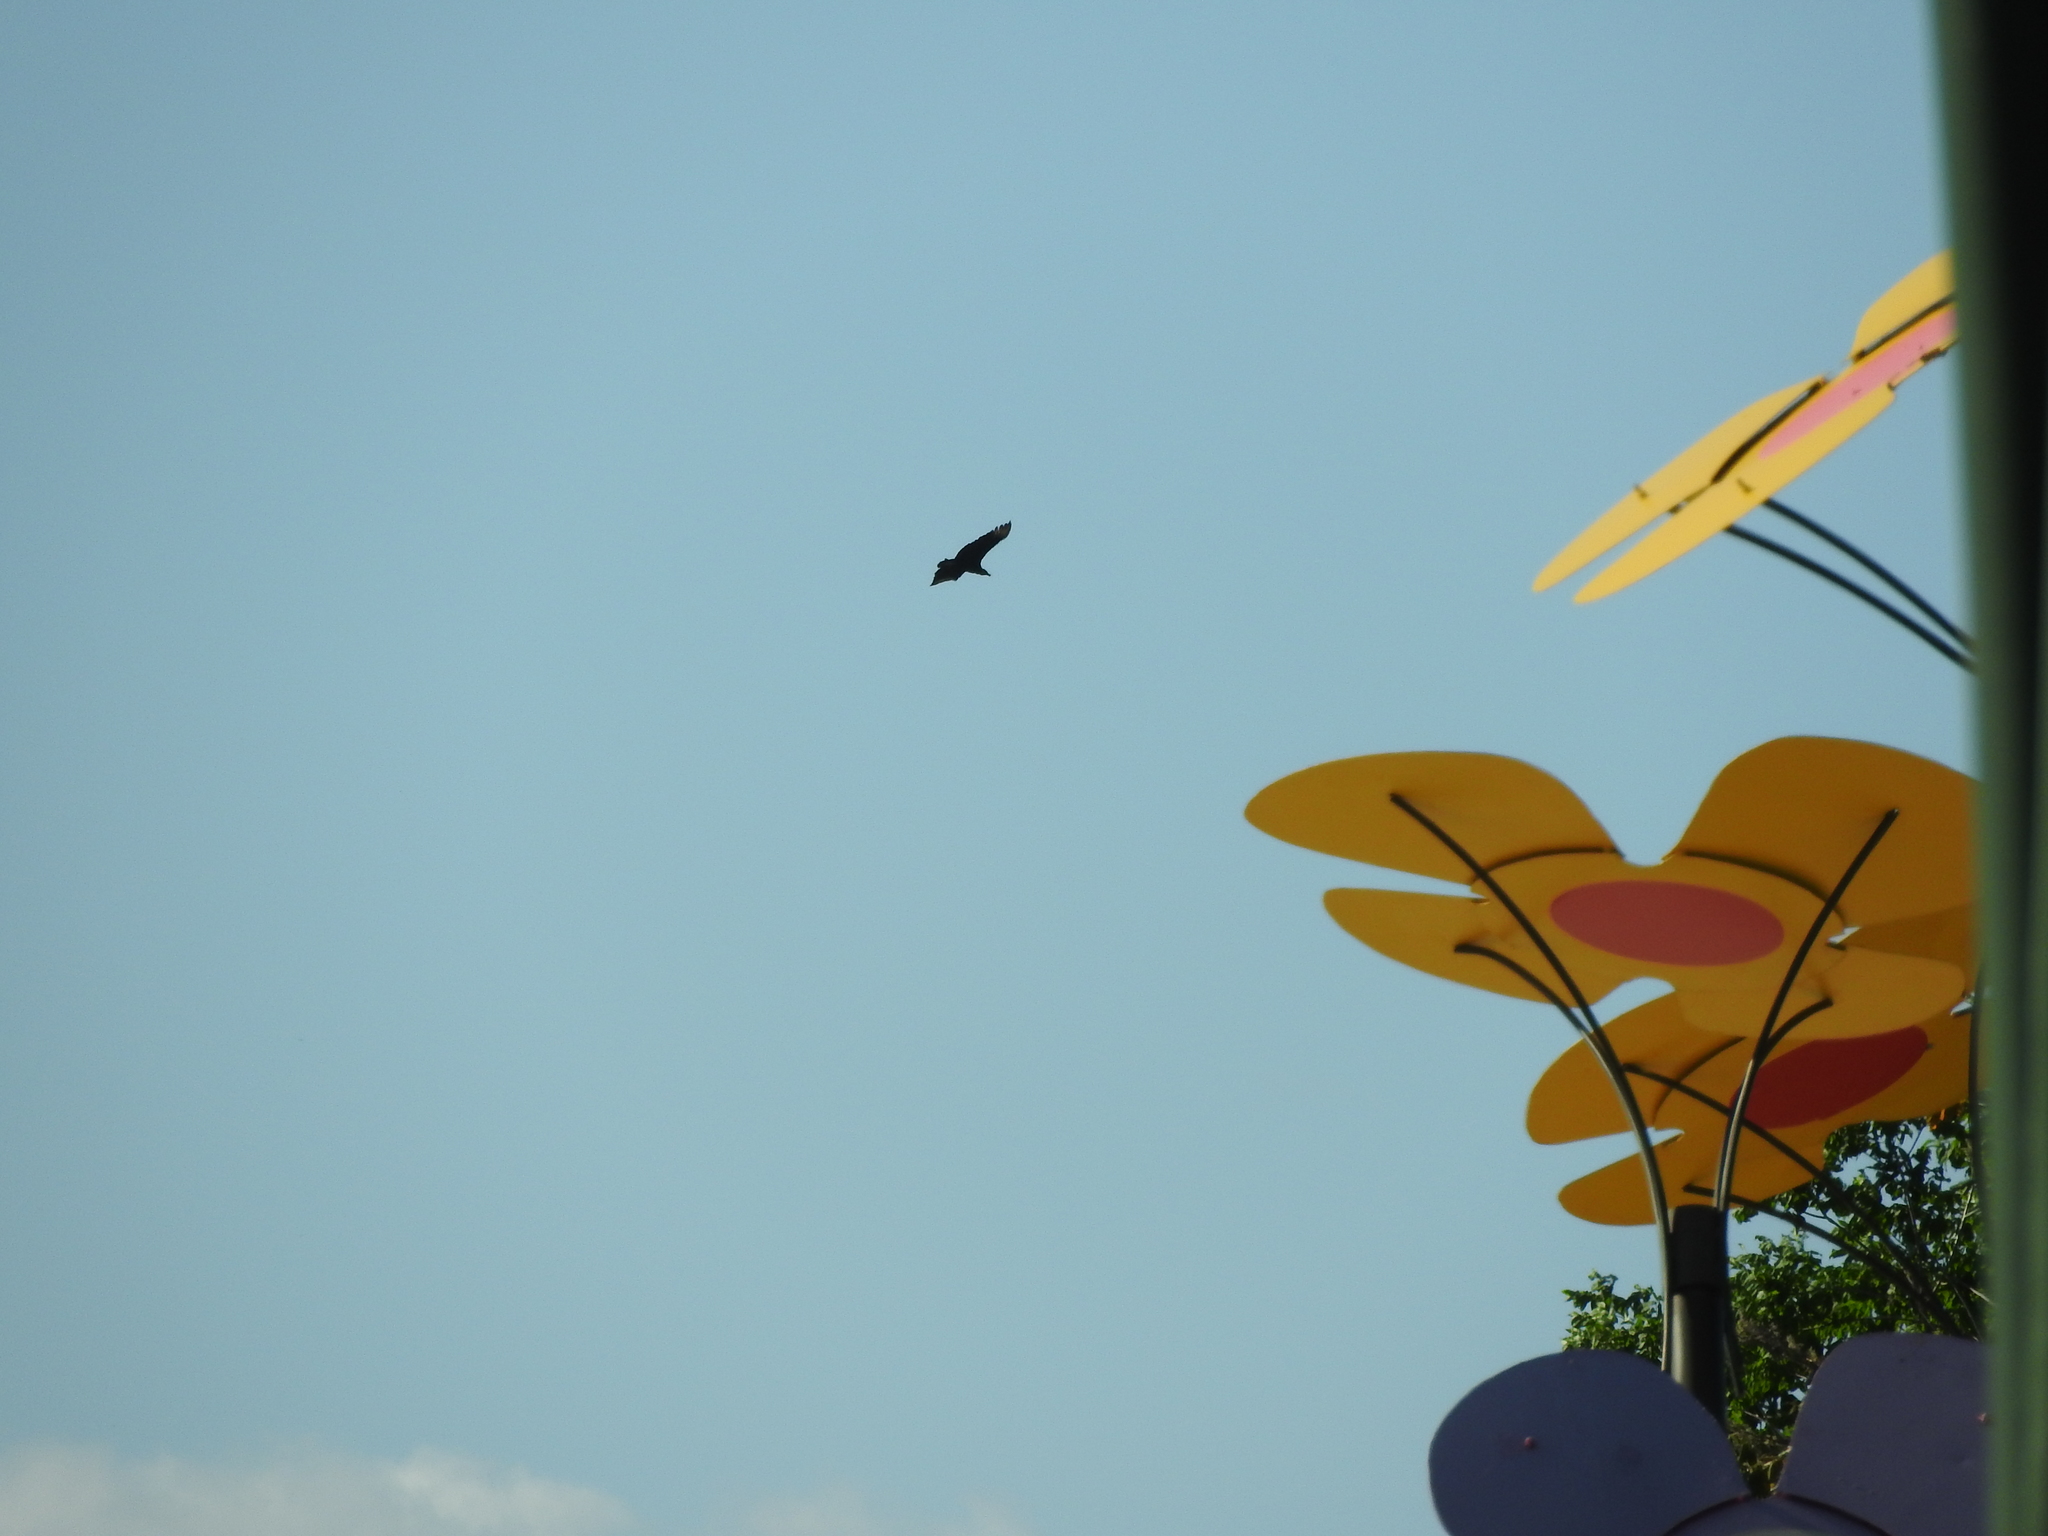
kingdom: Animalia
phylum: Chordata
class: Aves
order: Accipitriformes
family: Cathartidae
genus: Coragyps
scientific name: Coragyps atratus
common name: Black vulture
